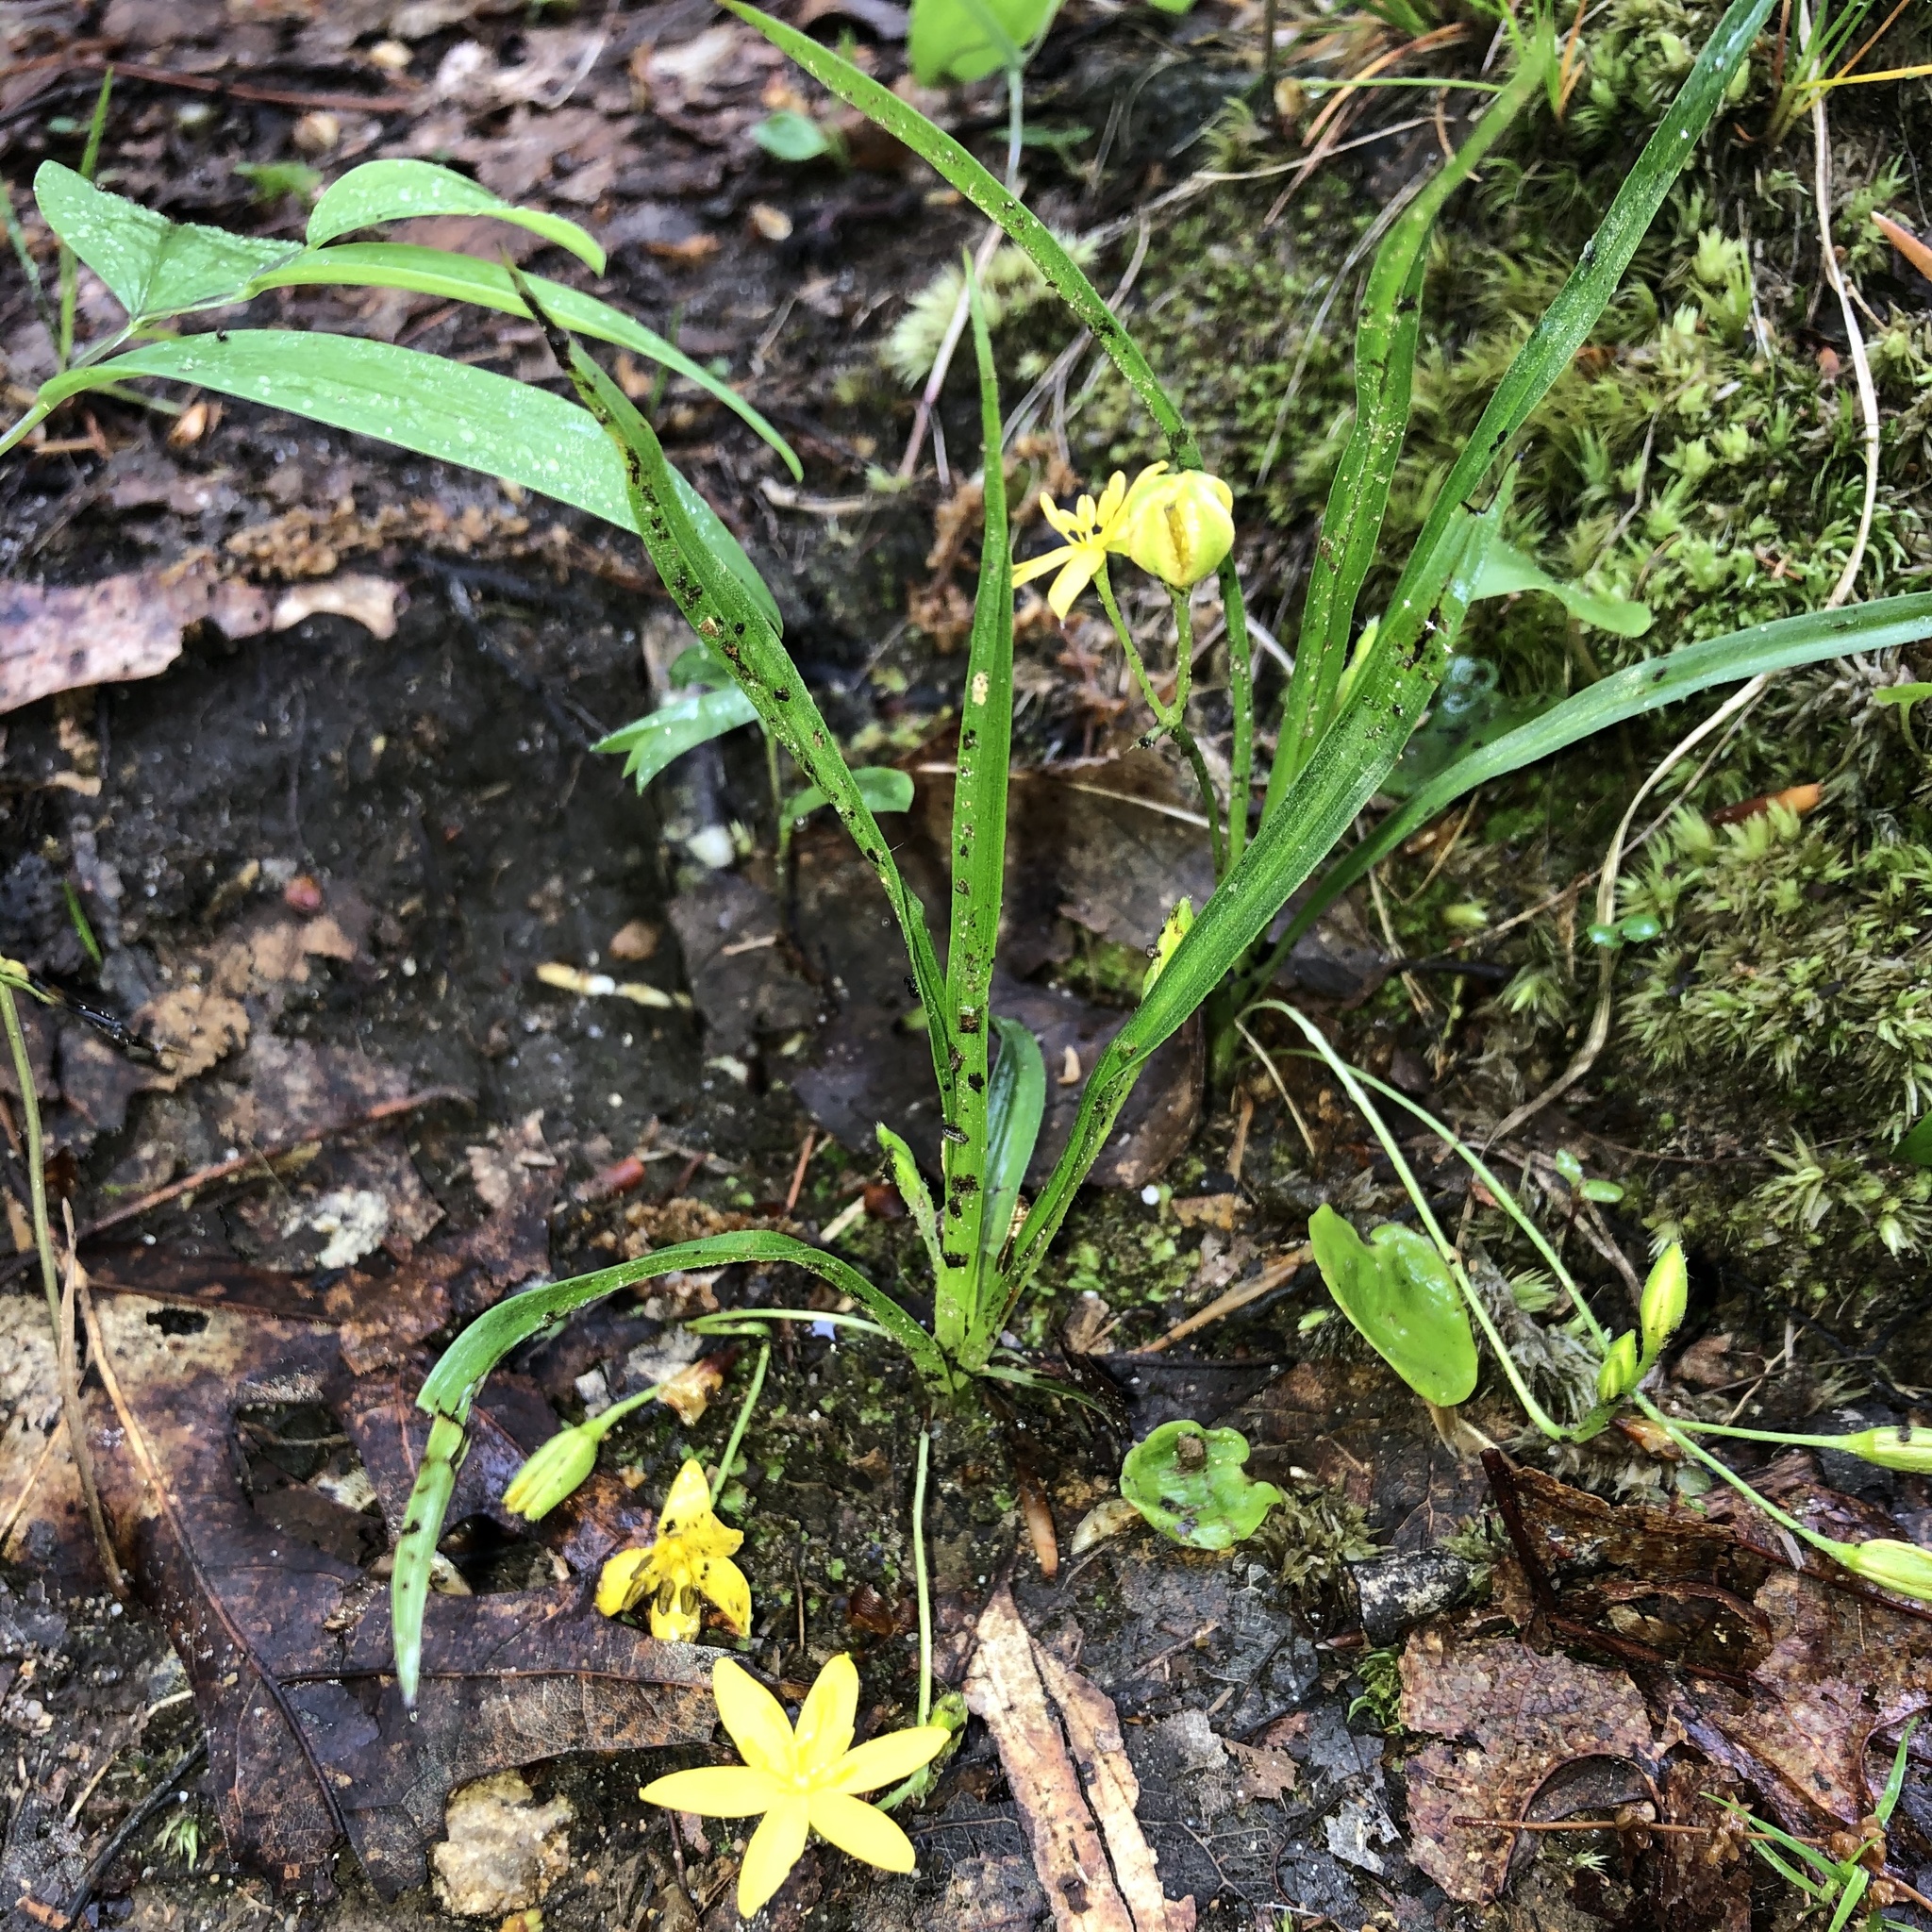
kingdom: Plantae
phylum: Tracheophyta
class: Liliopsida
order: Asparagales
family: Hypoxidaceae
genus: Hypoxis
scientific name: Hypoxis hirsuta
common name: Common goldstar
